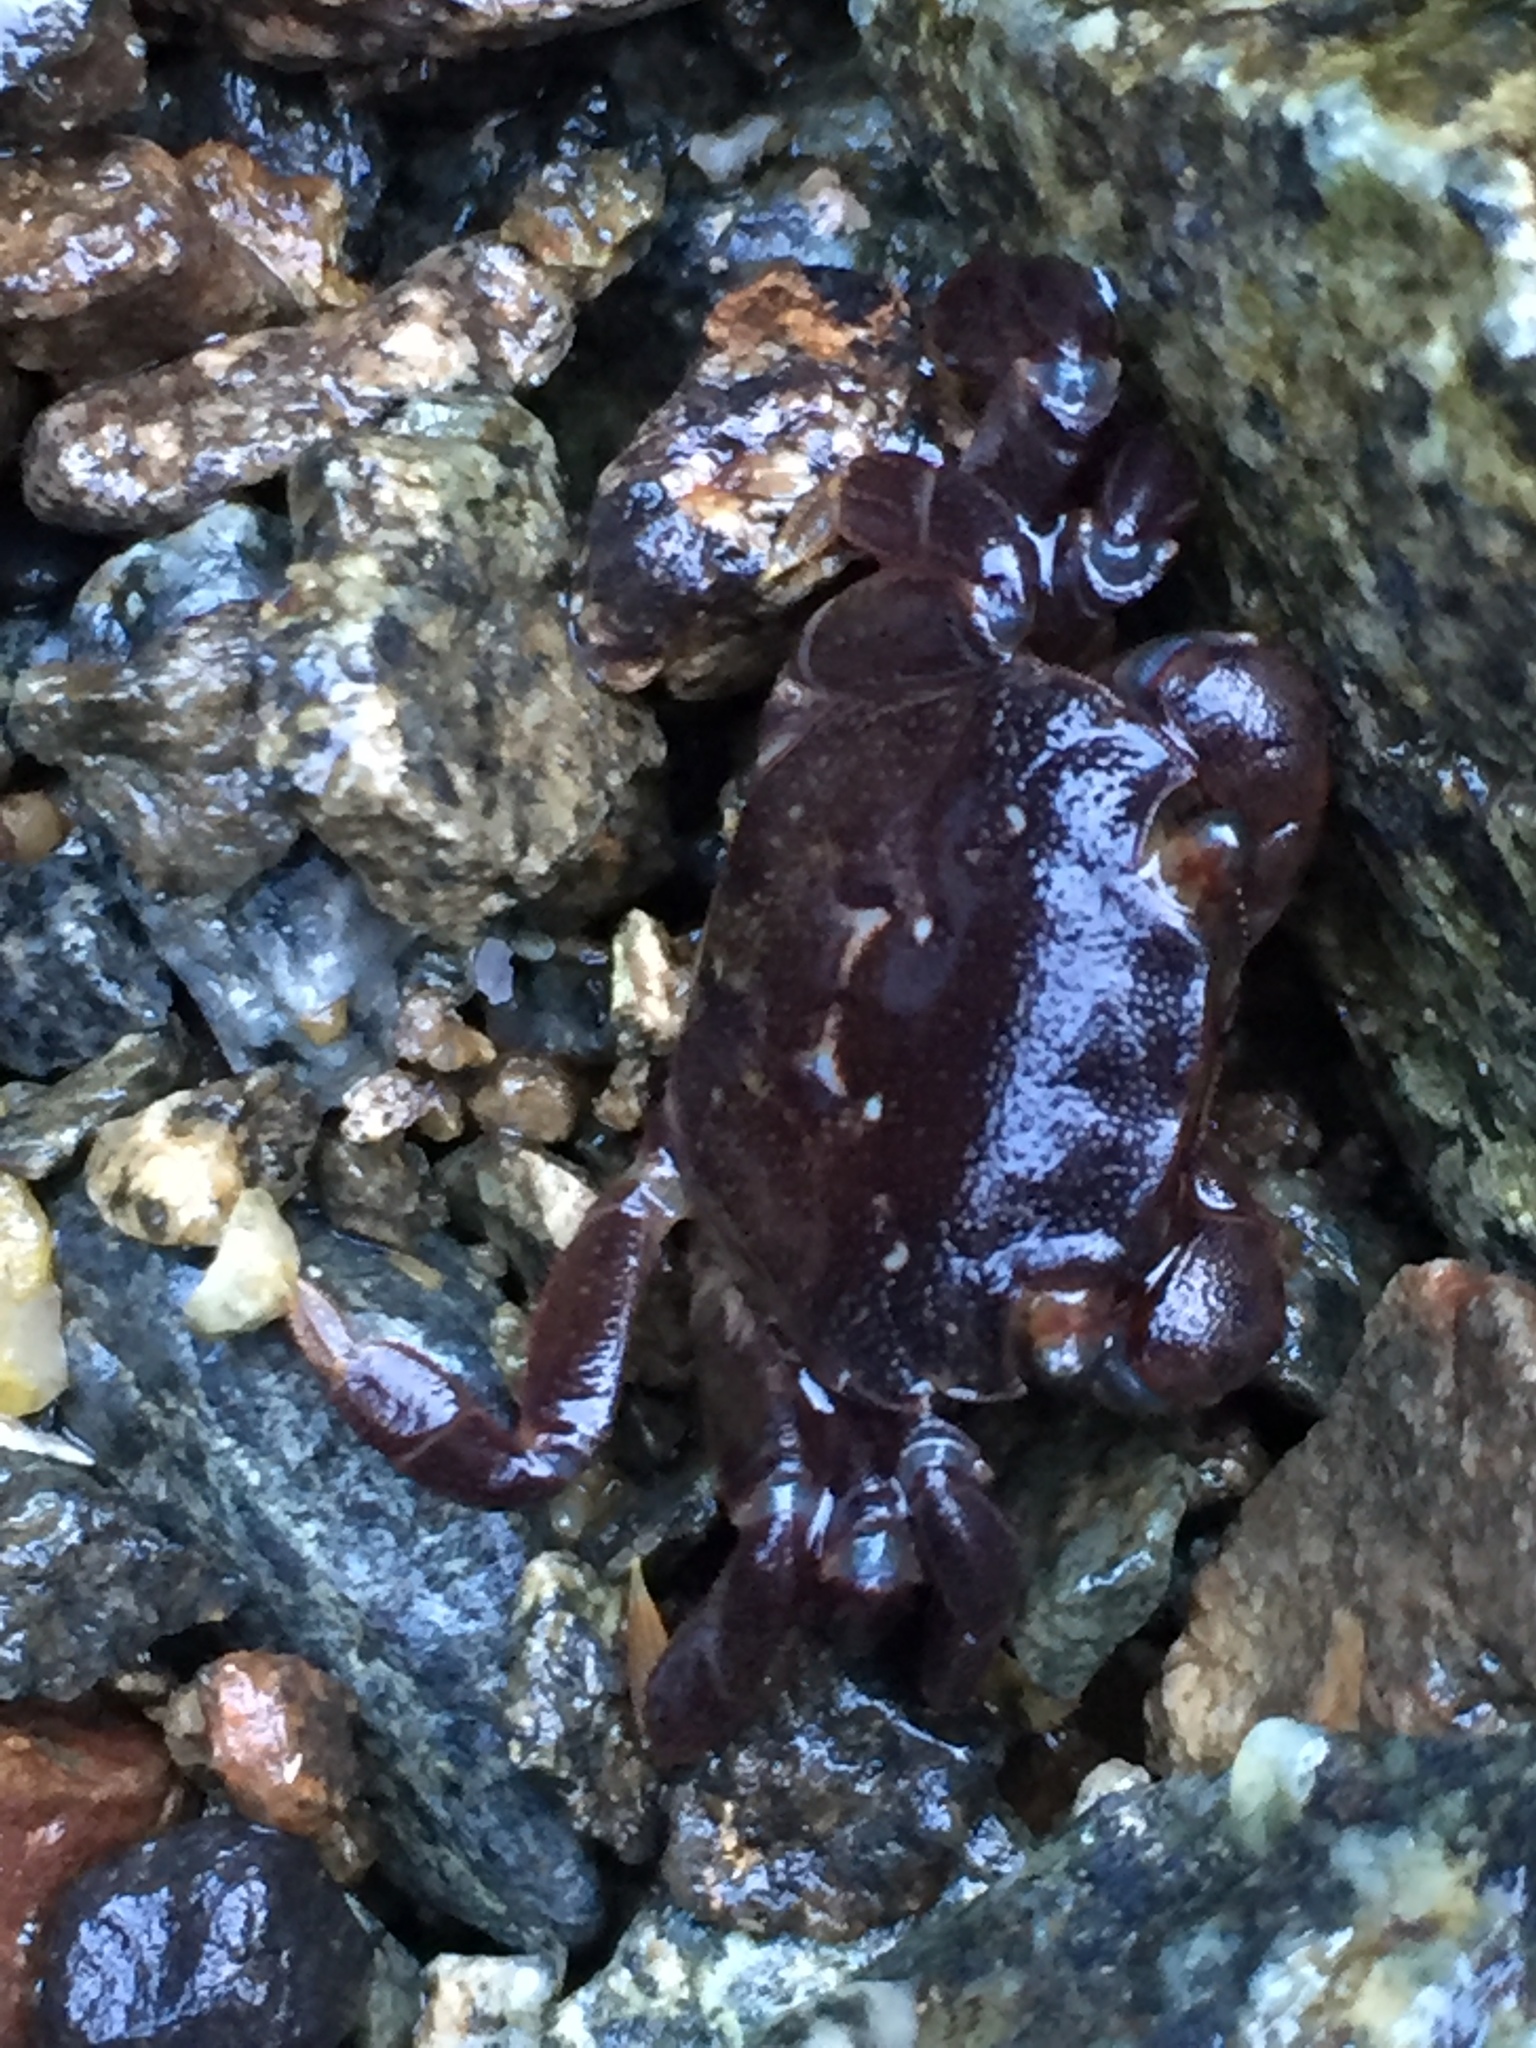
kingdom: Animalia
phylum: Arthropoda
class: Malacostraca
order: Decapoda
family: Varunidae
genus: Hemigrapsus
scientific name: Hemigrapsus nudus
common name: Purple shore crab
